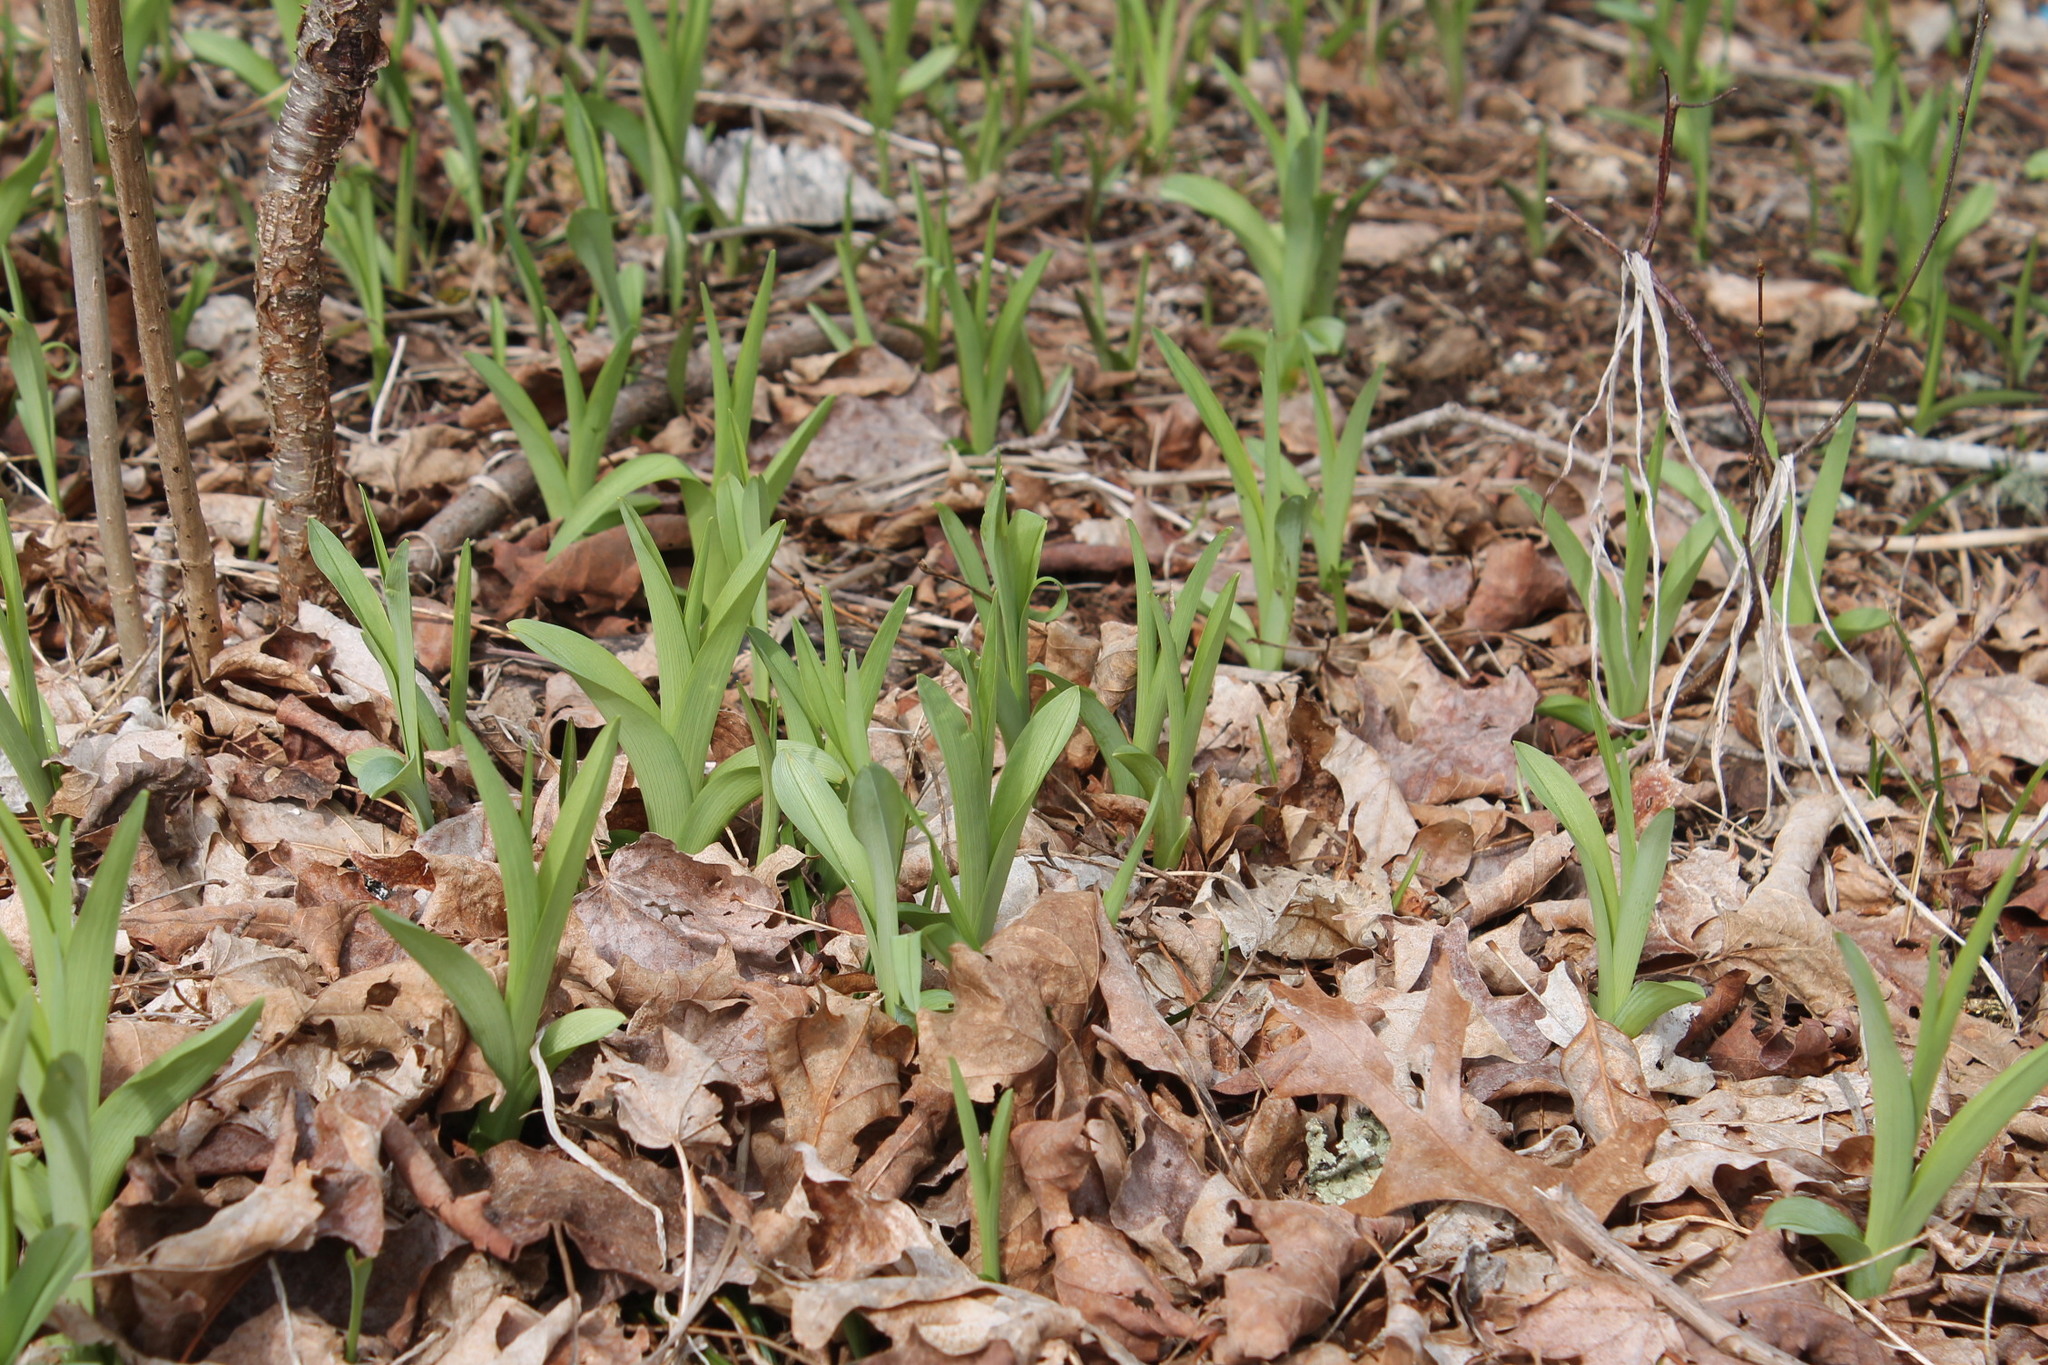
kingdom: Plantae
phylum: Tracheophyta
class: Liliopsida
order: Asparagales
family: Asphodelaceae
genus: Hemerocallis
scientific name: Hemerocallis fulva
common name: Orange day-lily
